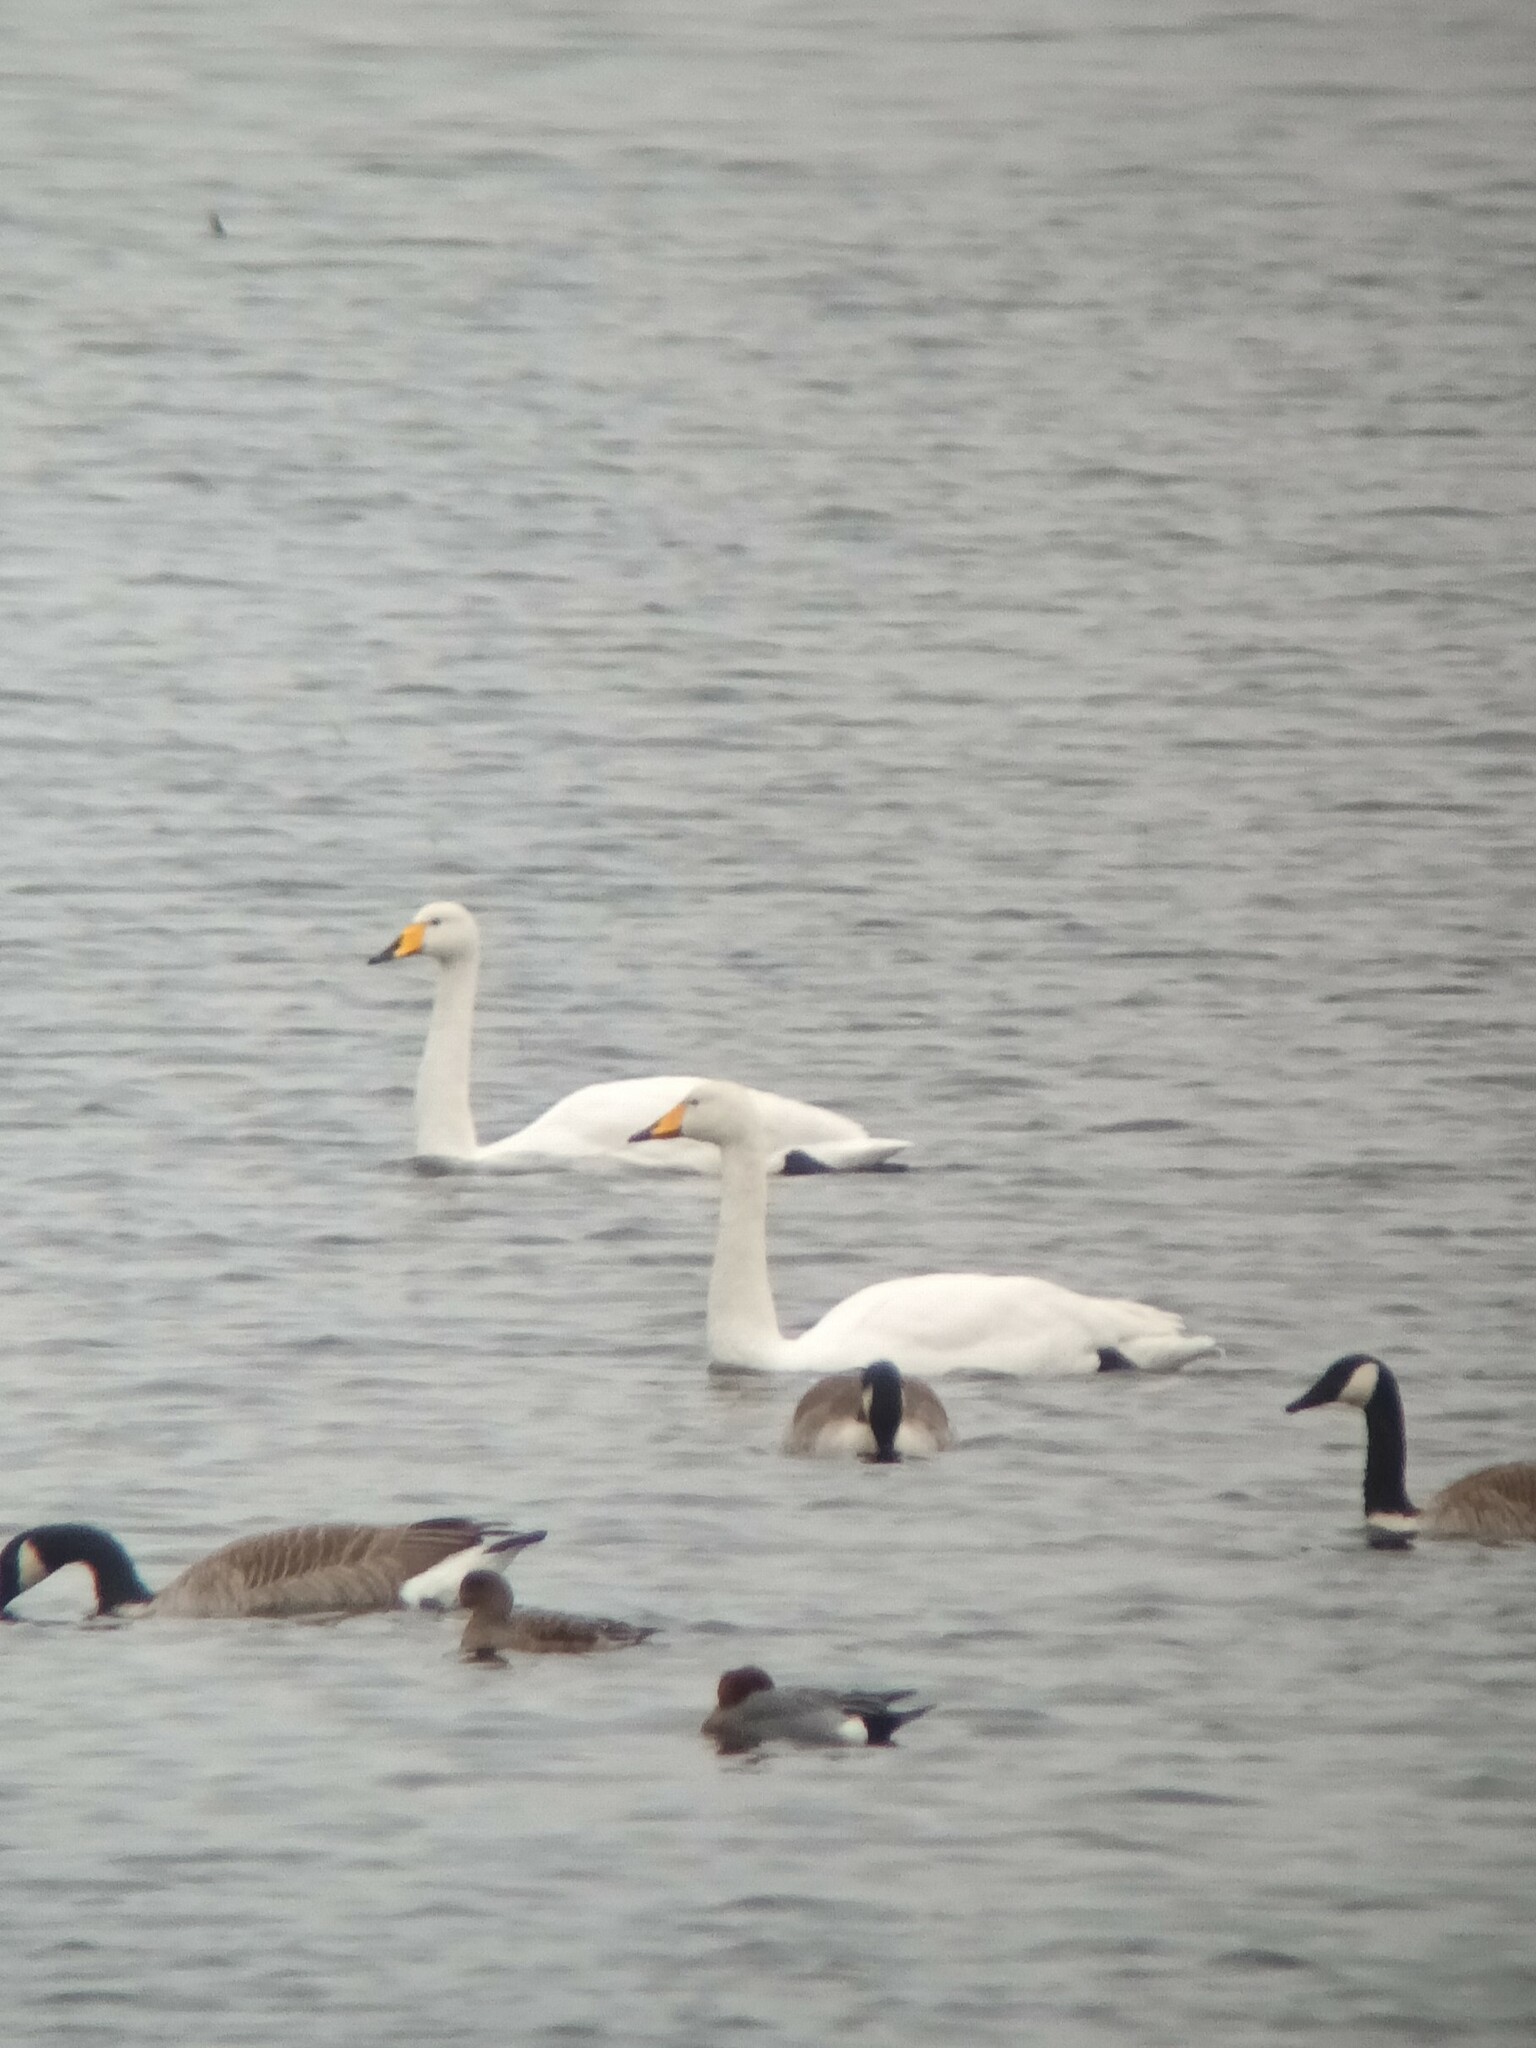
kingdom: Animalia
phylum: Chordata
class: Aves
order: Anseriformes
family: Anatidae
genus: Cygnus
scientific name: Cygnus cygnus
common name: Whooper swan
